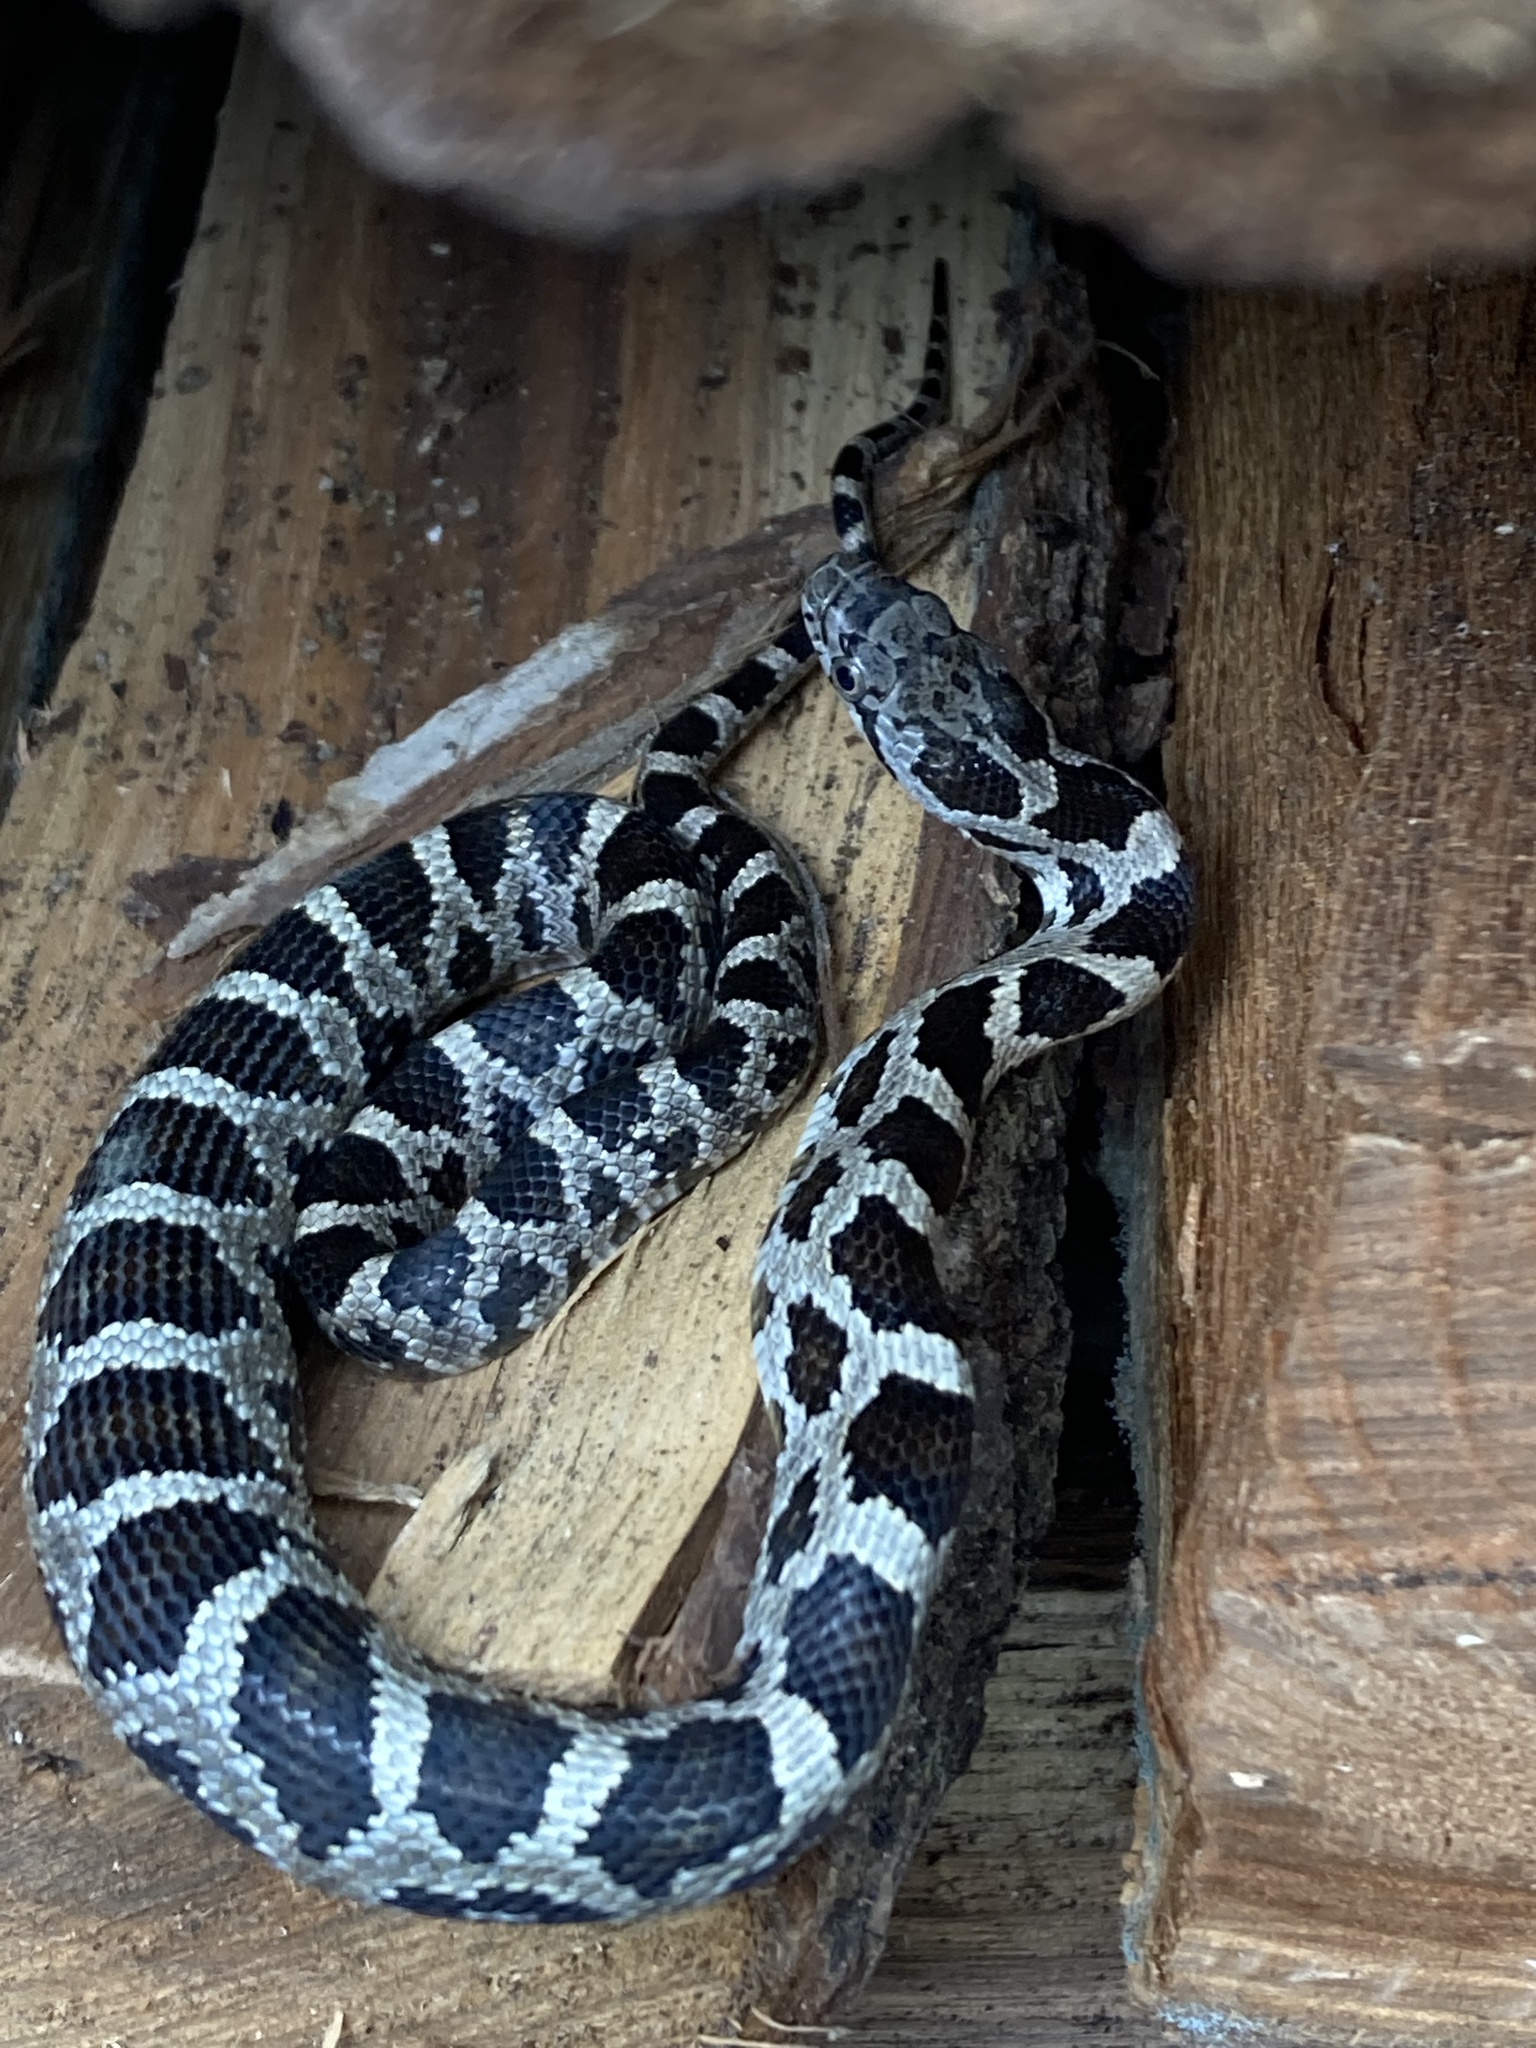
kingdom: Animalia
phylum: Chordata
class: Squamata
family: Colubridae
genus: Pantherophis
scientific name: Pantherophis spiloides
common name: Gray rat snake
